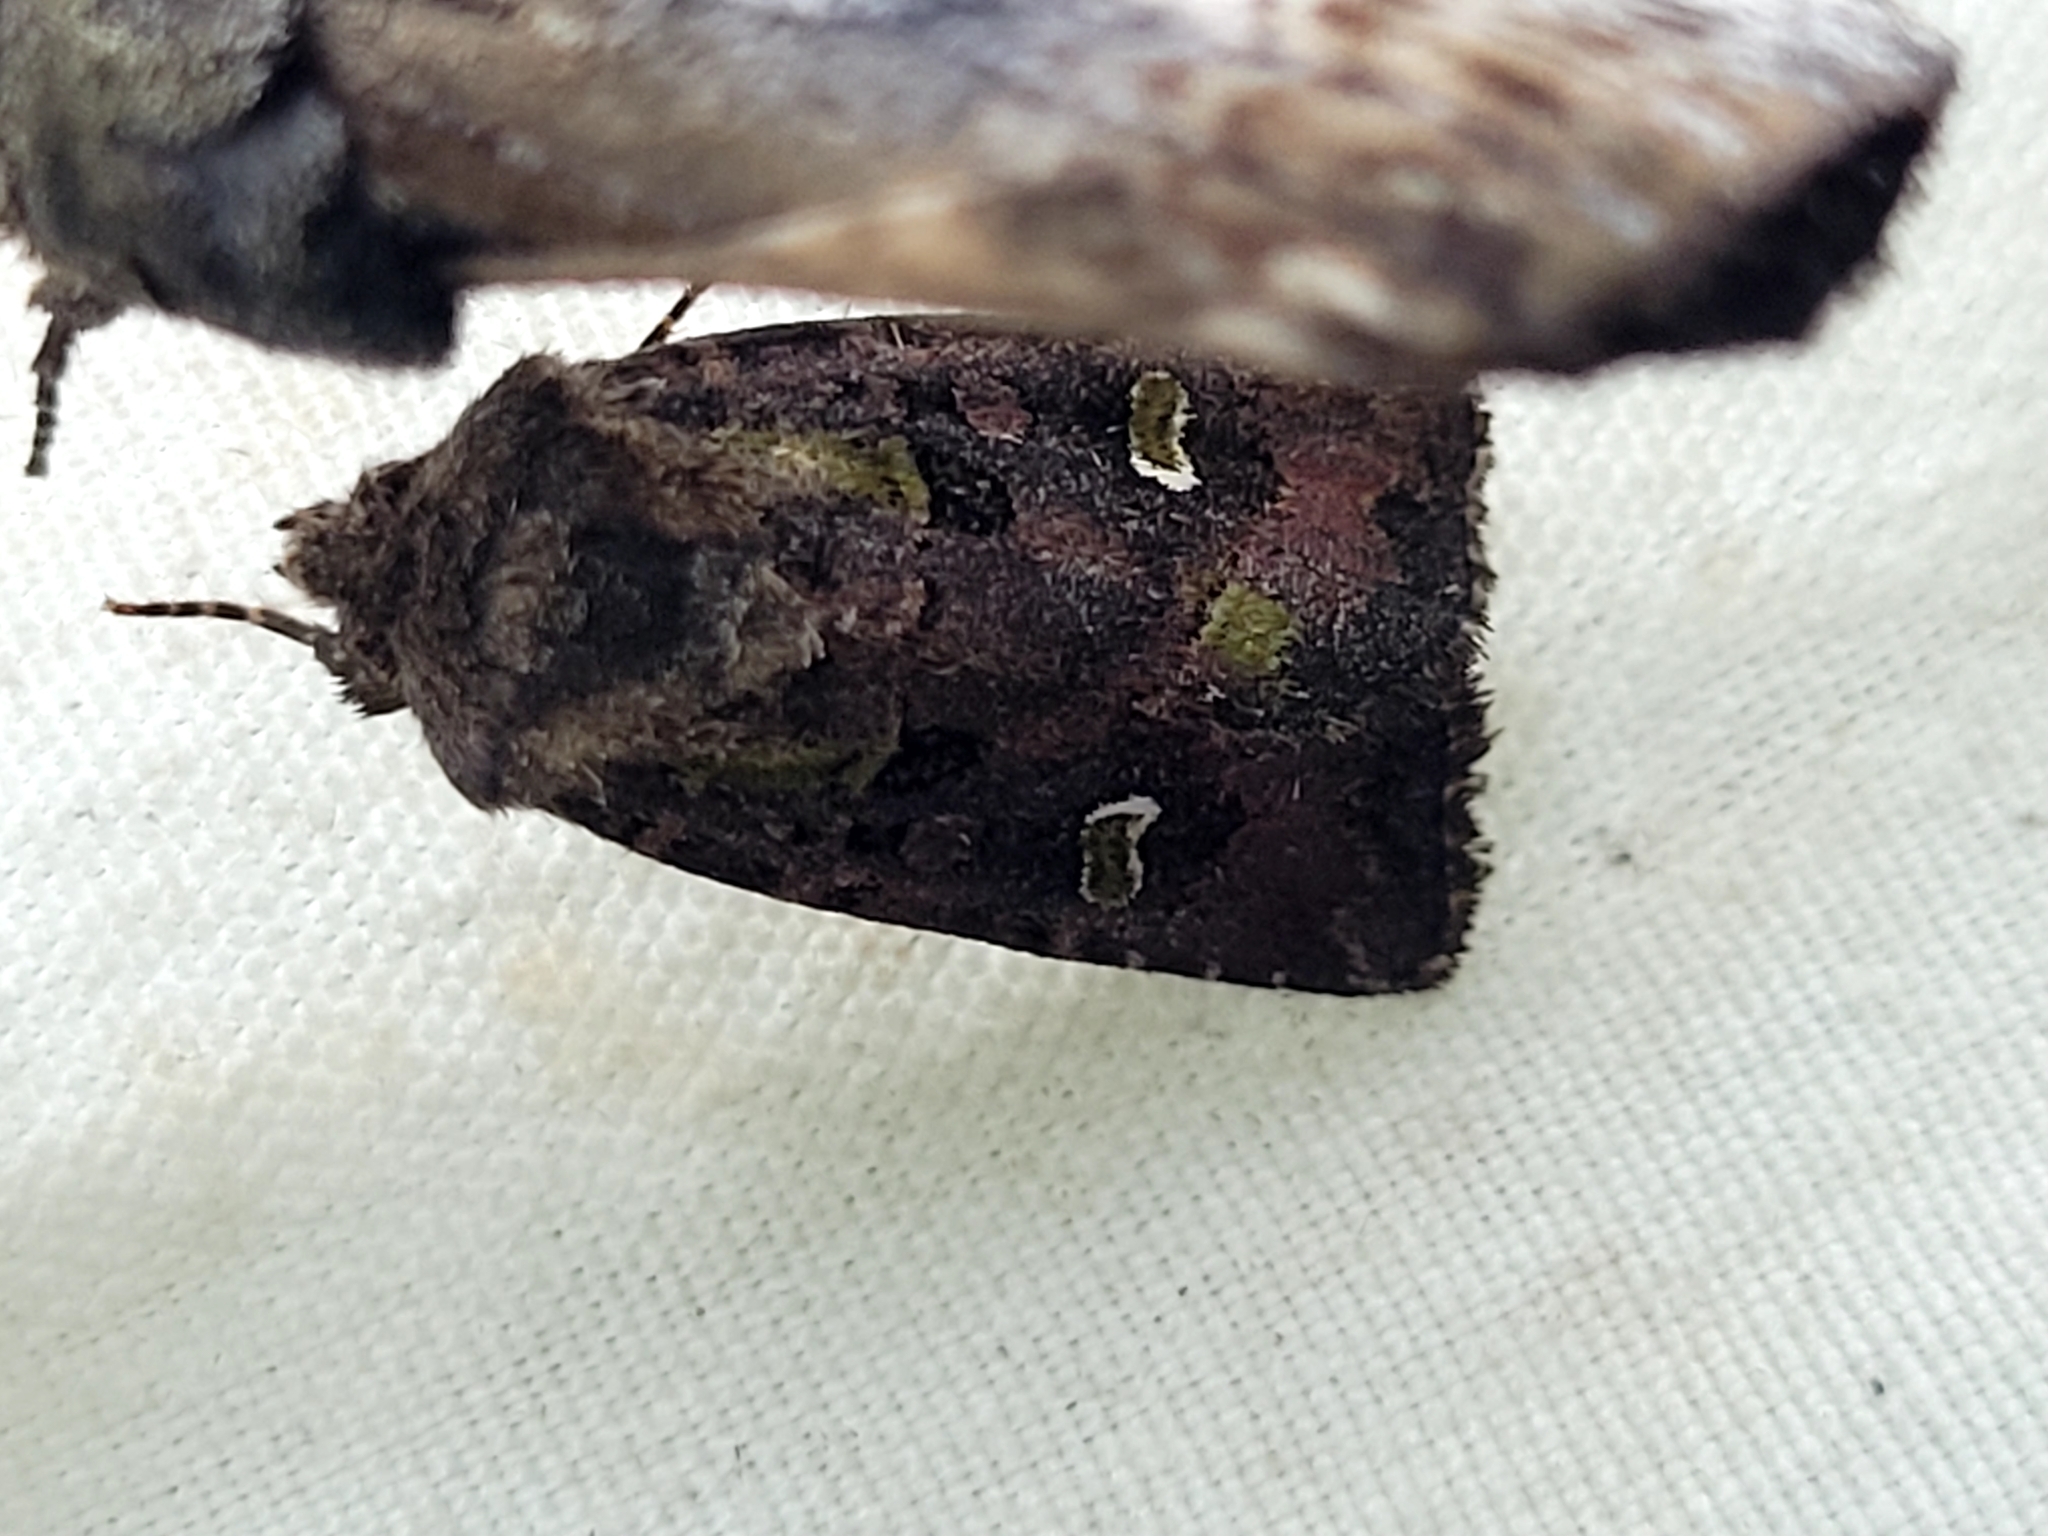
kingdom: Animalia
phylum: Arthropoda
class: Insecta
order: Lepidoptera
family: Noctuidae
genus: Lacinipolia
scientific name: Lacinipolia renigera
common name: Kidney-spotted minor
